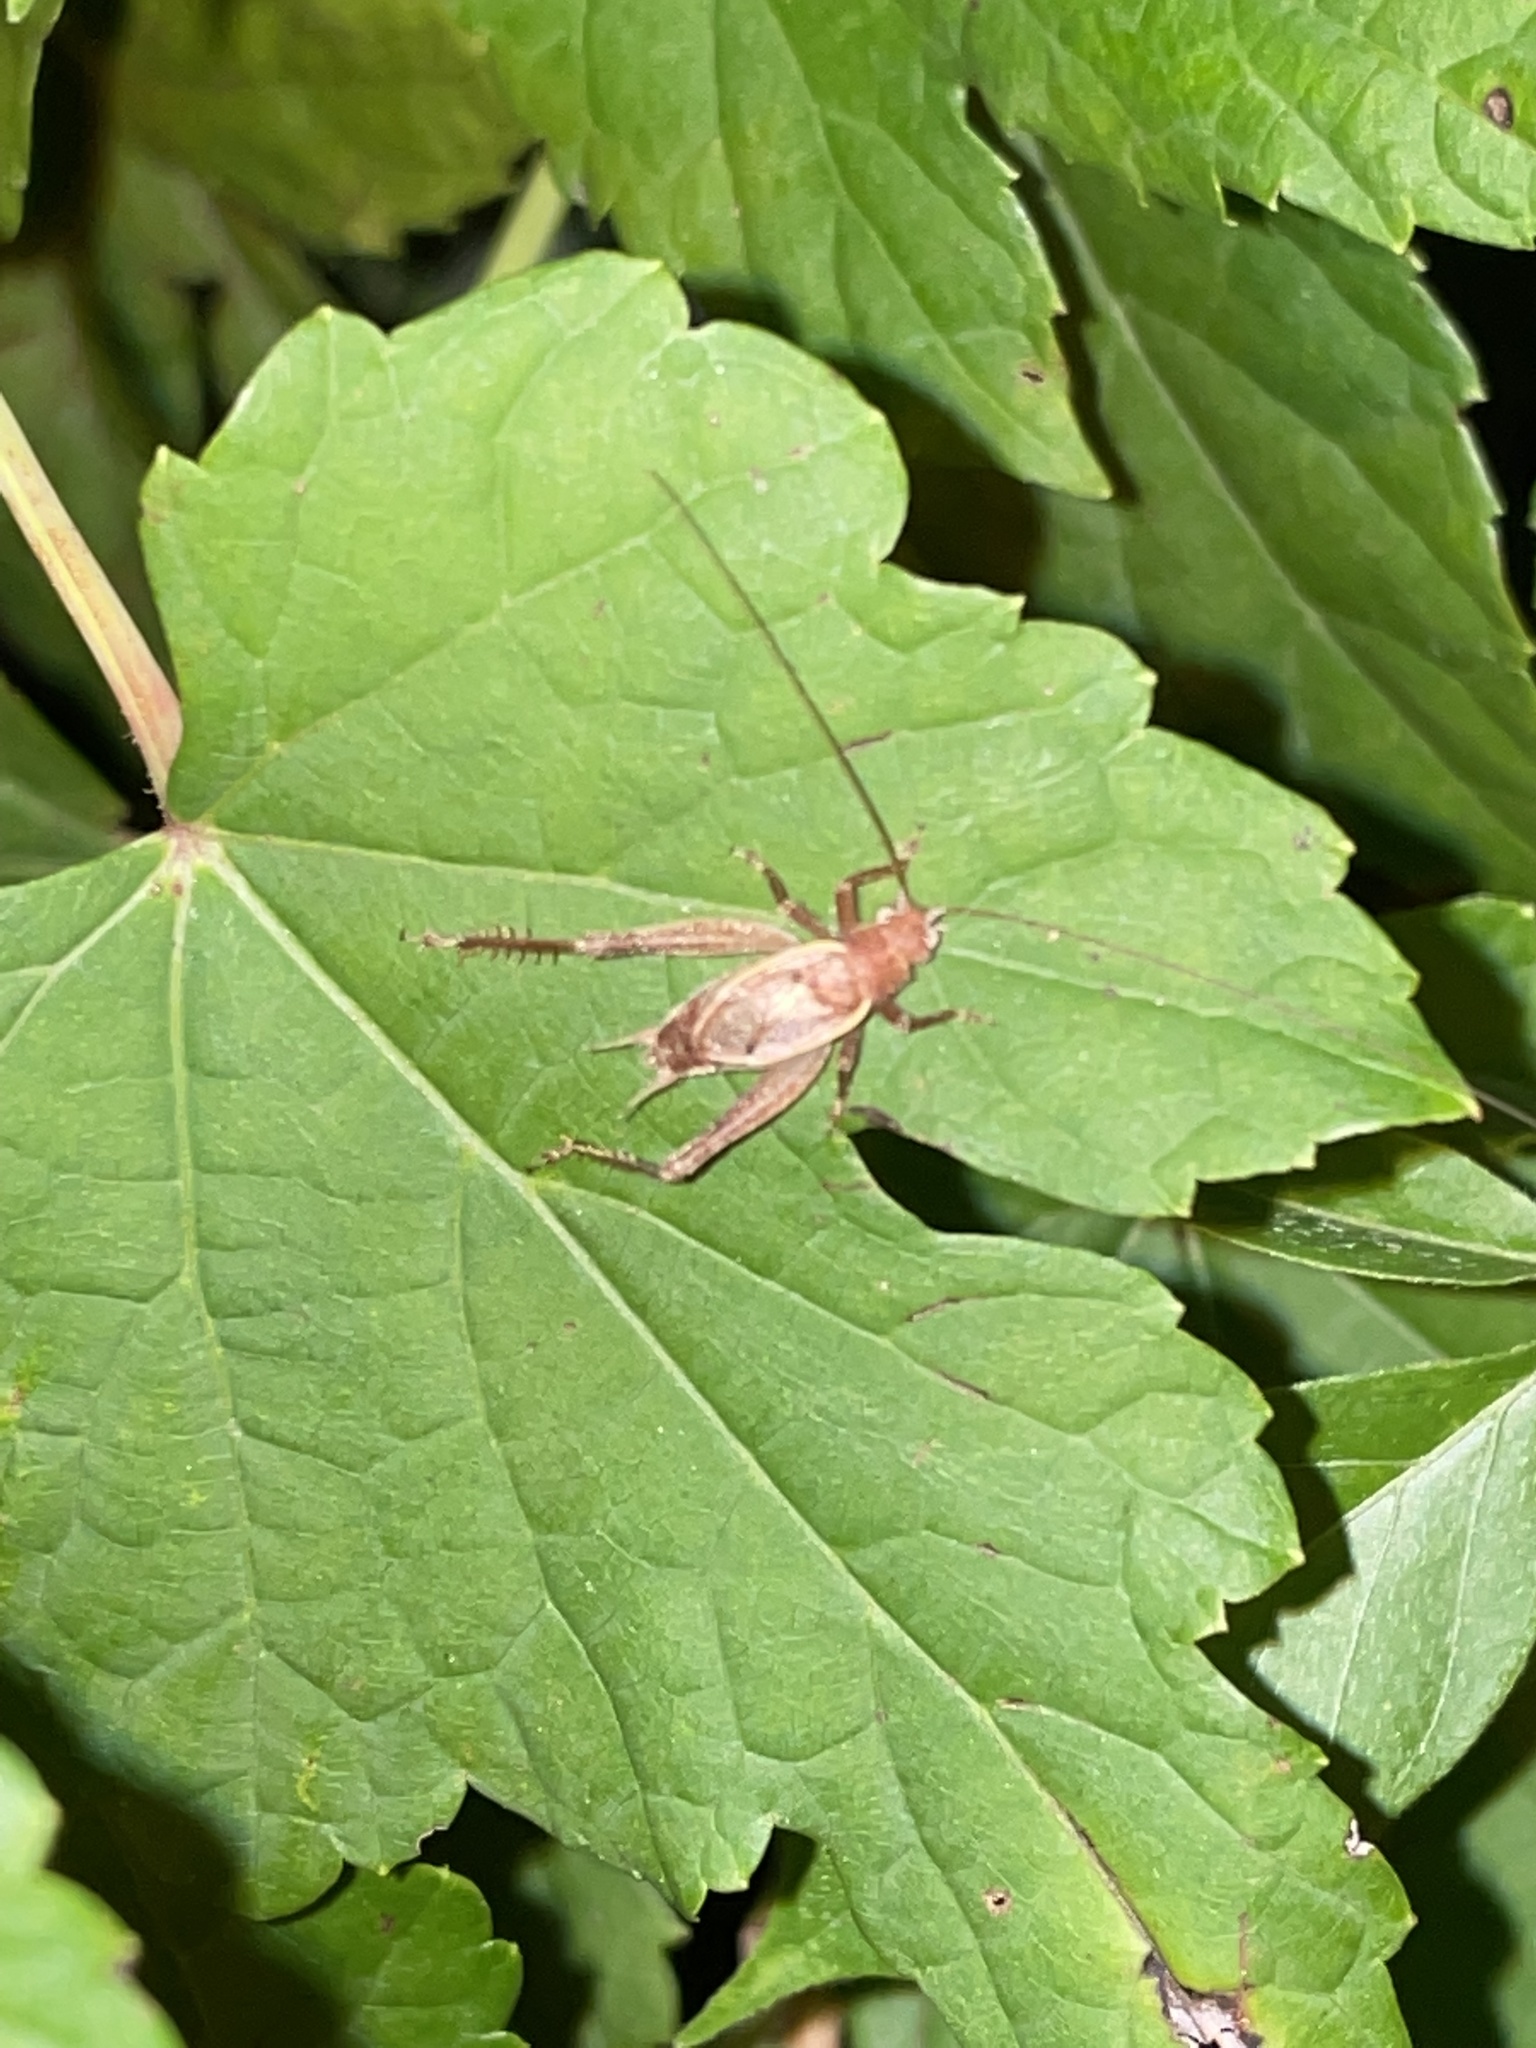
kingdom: Animalia
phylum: Arthropoda
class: Insecta
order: Orthoptera
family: Gryllidae
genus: Hapithus
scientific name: Hapithus agitator
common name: Restless bush cricket
